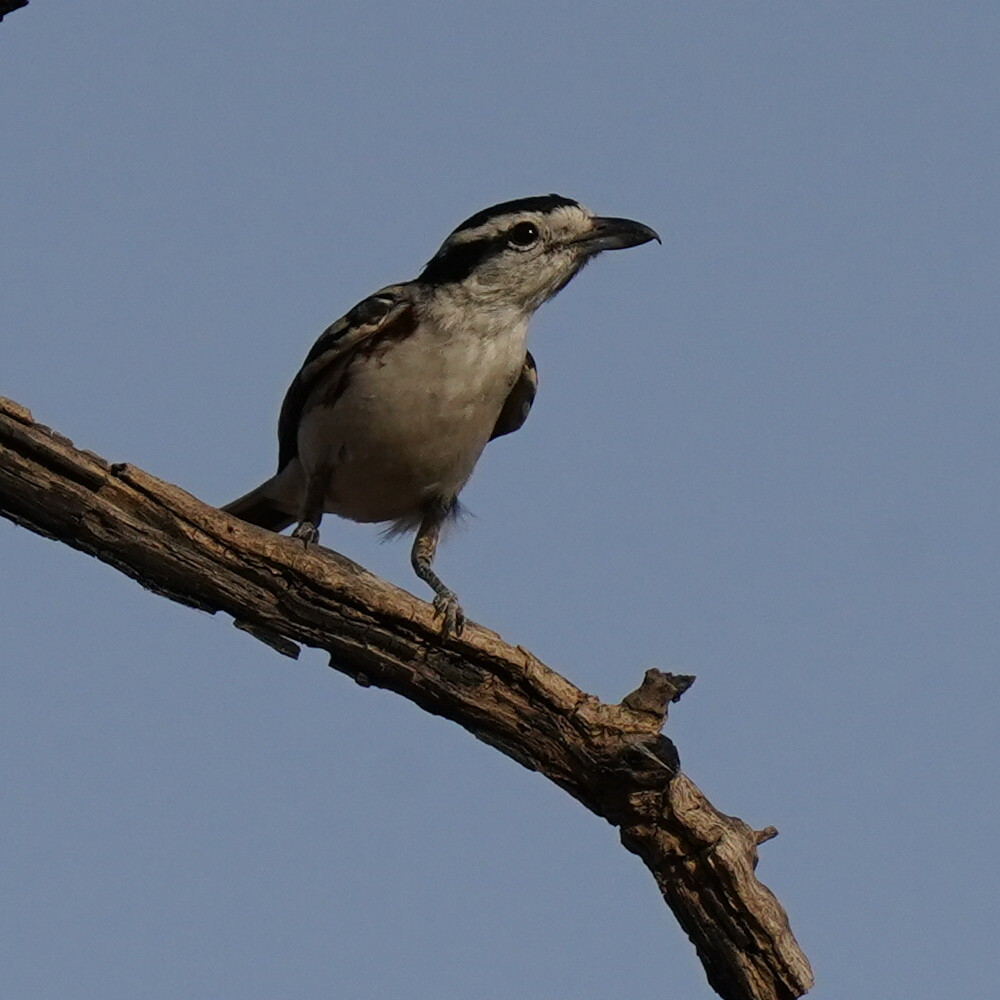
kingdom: Animalia
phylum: Chordata
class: Aves
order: Passeriformes
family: Malaconotidae
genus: Nilaus
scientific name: Nilaus afer
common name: Brubru
